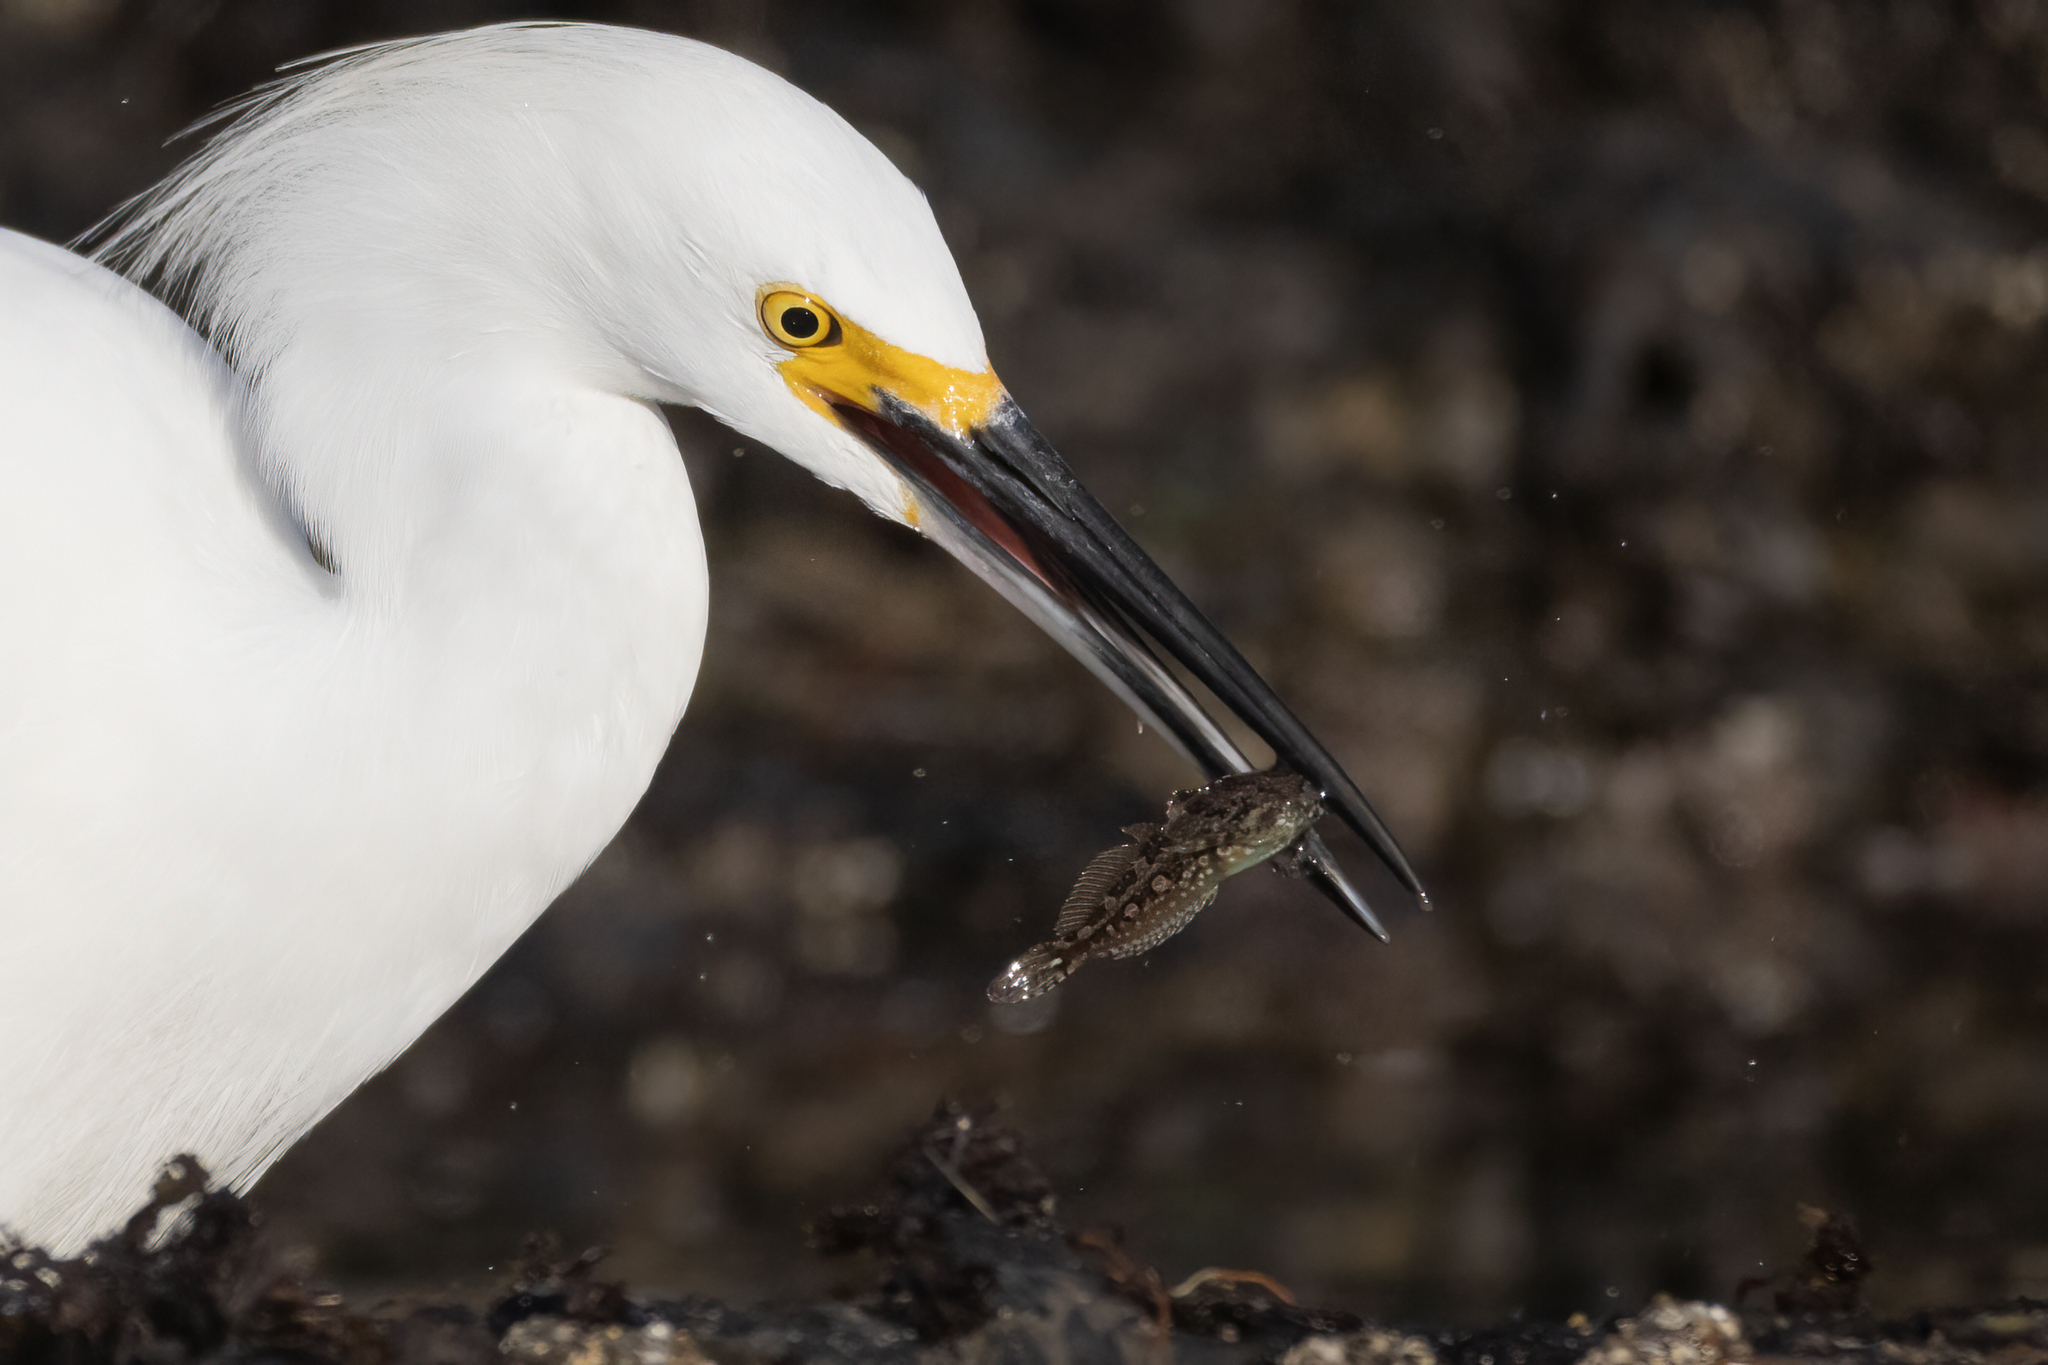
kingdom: Animalia
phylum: Chordata
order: Scorpaeniformes
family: Cottidae
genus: Oligocottus
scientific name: Oligocottus snyderi
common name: Fluffy sculpin
